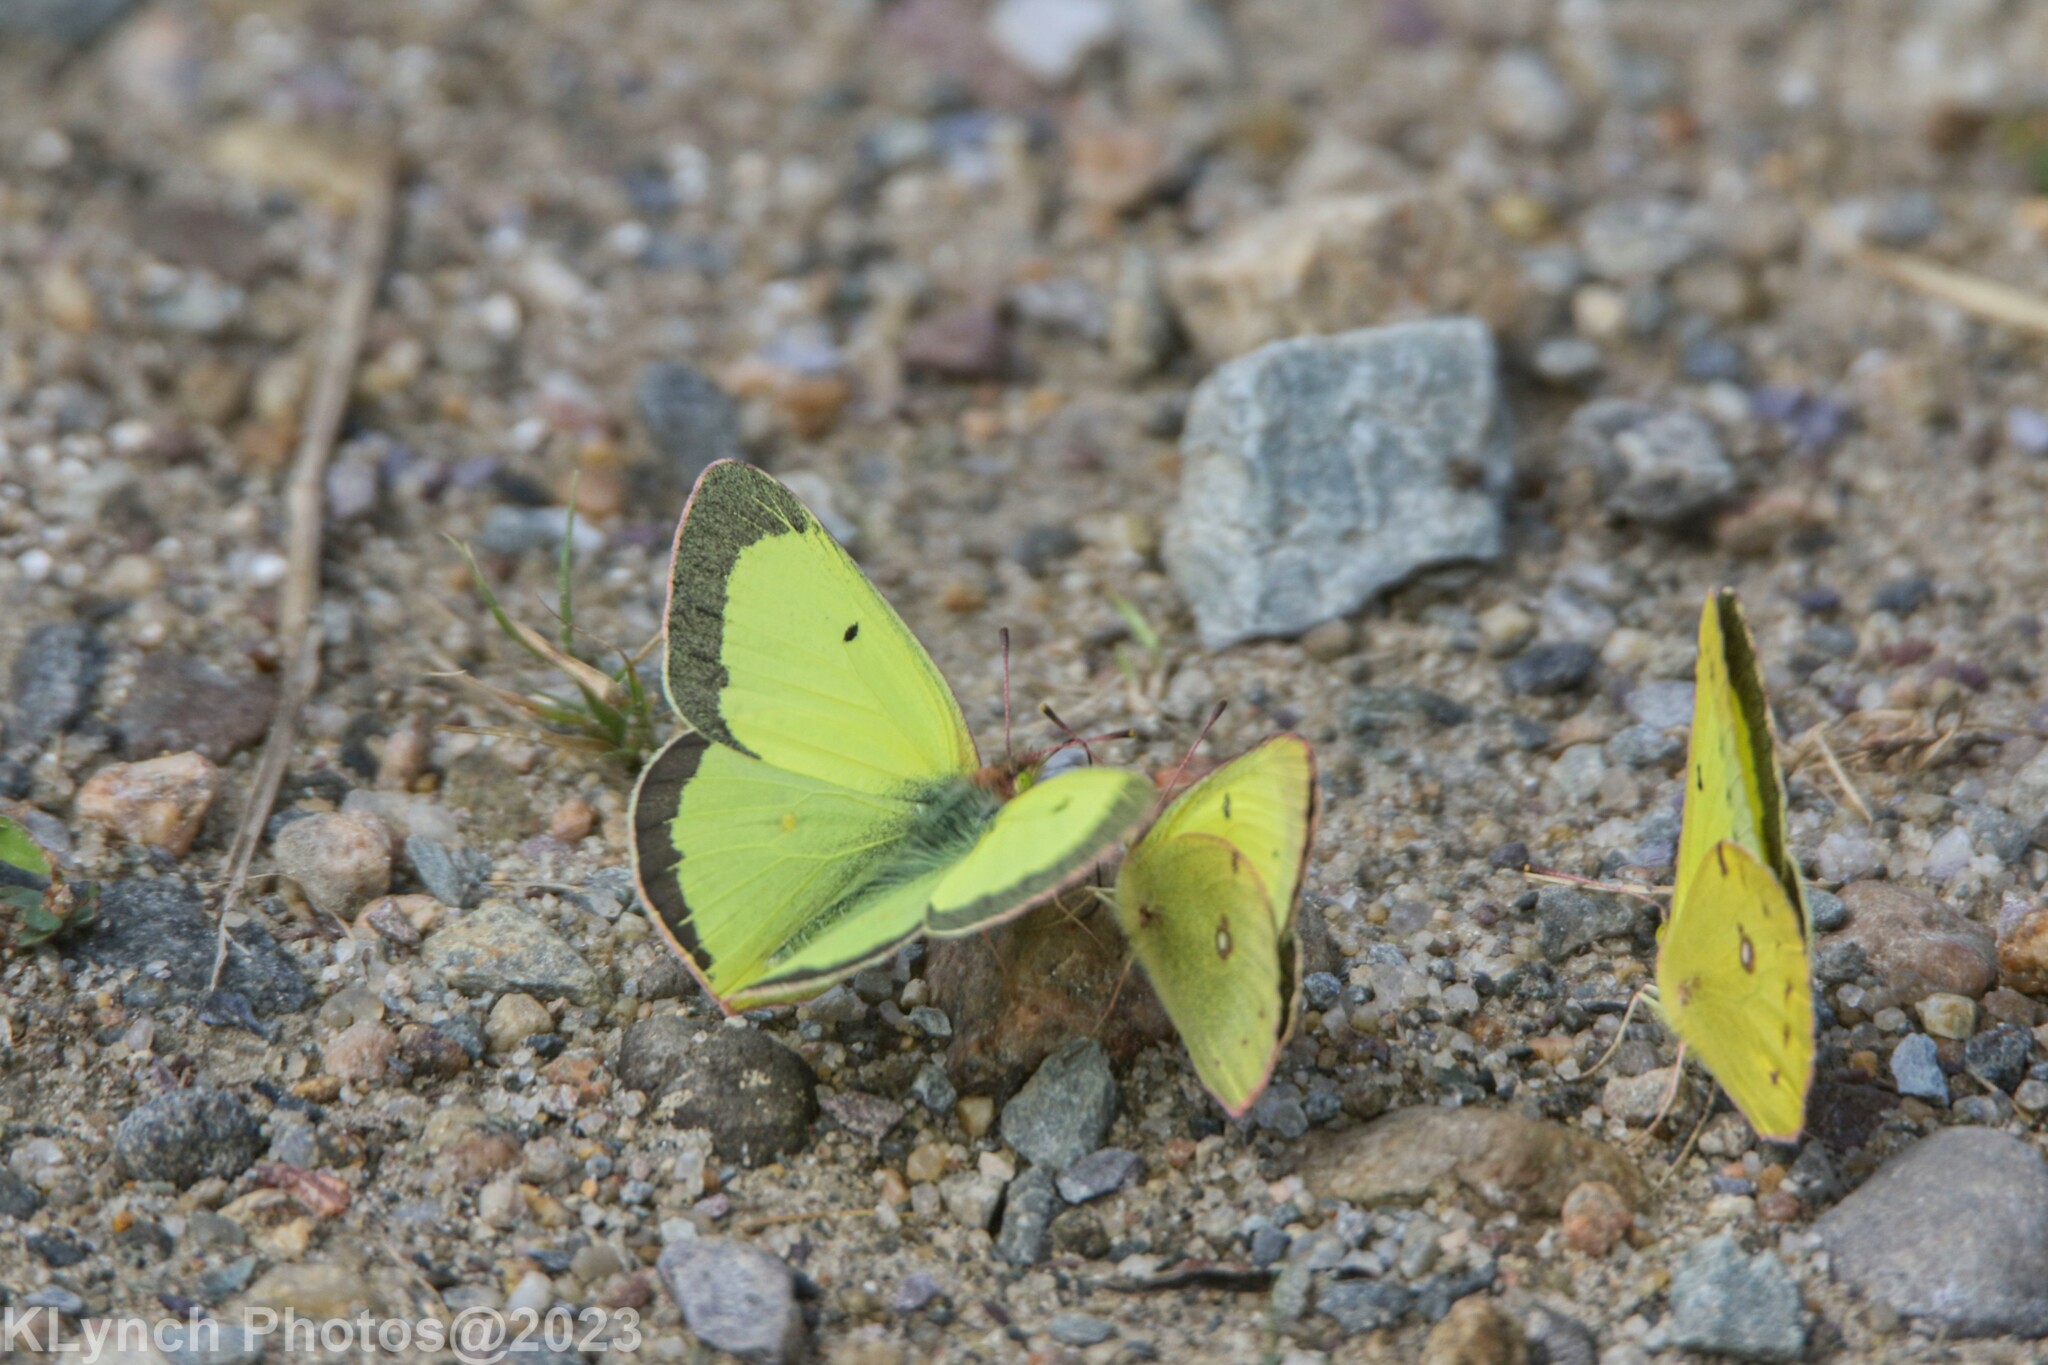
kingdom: Animalia
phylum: Arthropoda
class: Insecta
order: Lepidoptera
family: Pieridae
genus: Colias
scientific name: Colias philodice
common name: Clouded sulphur
